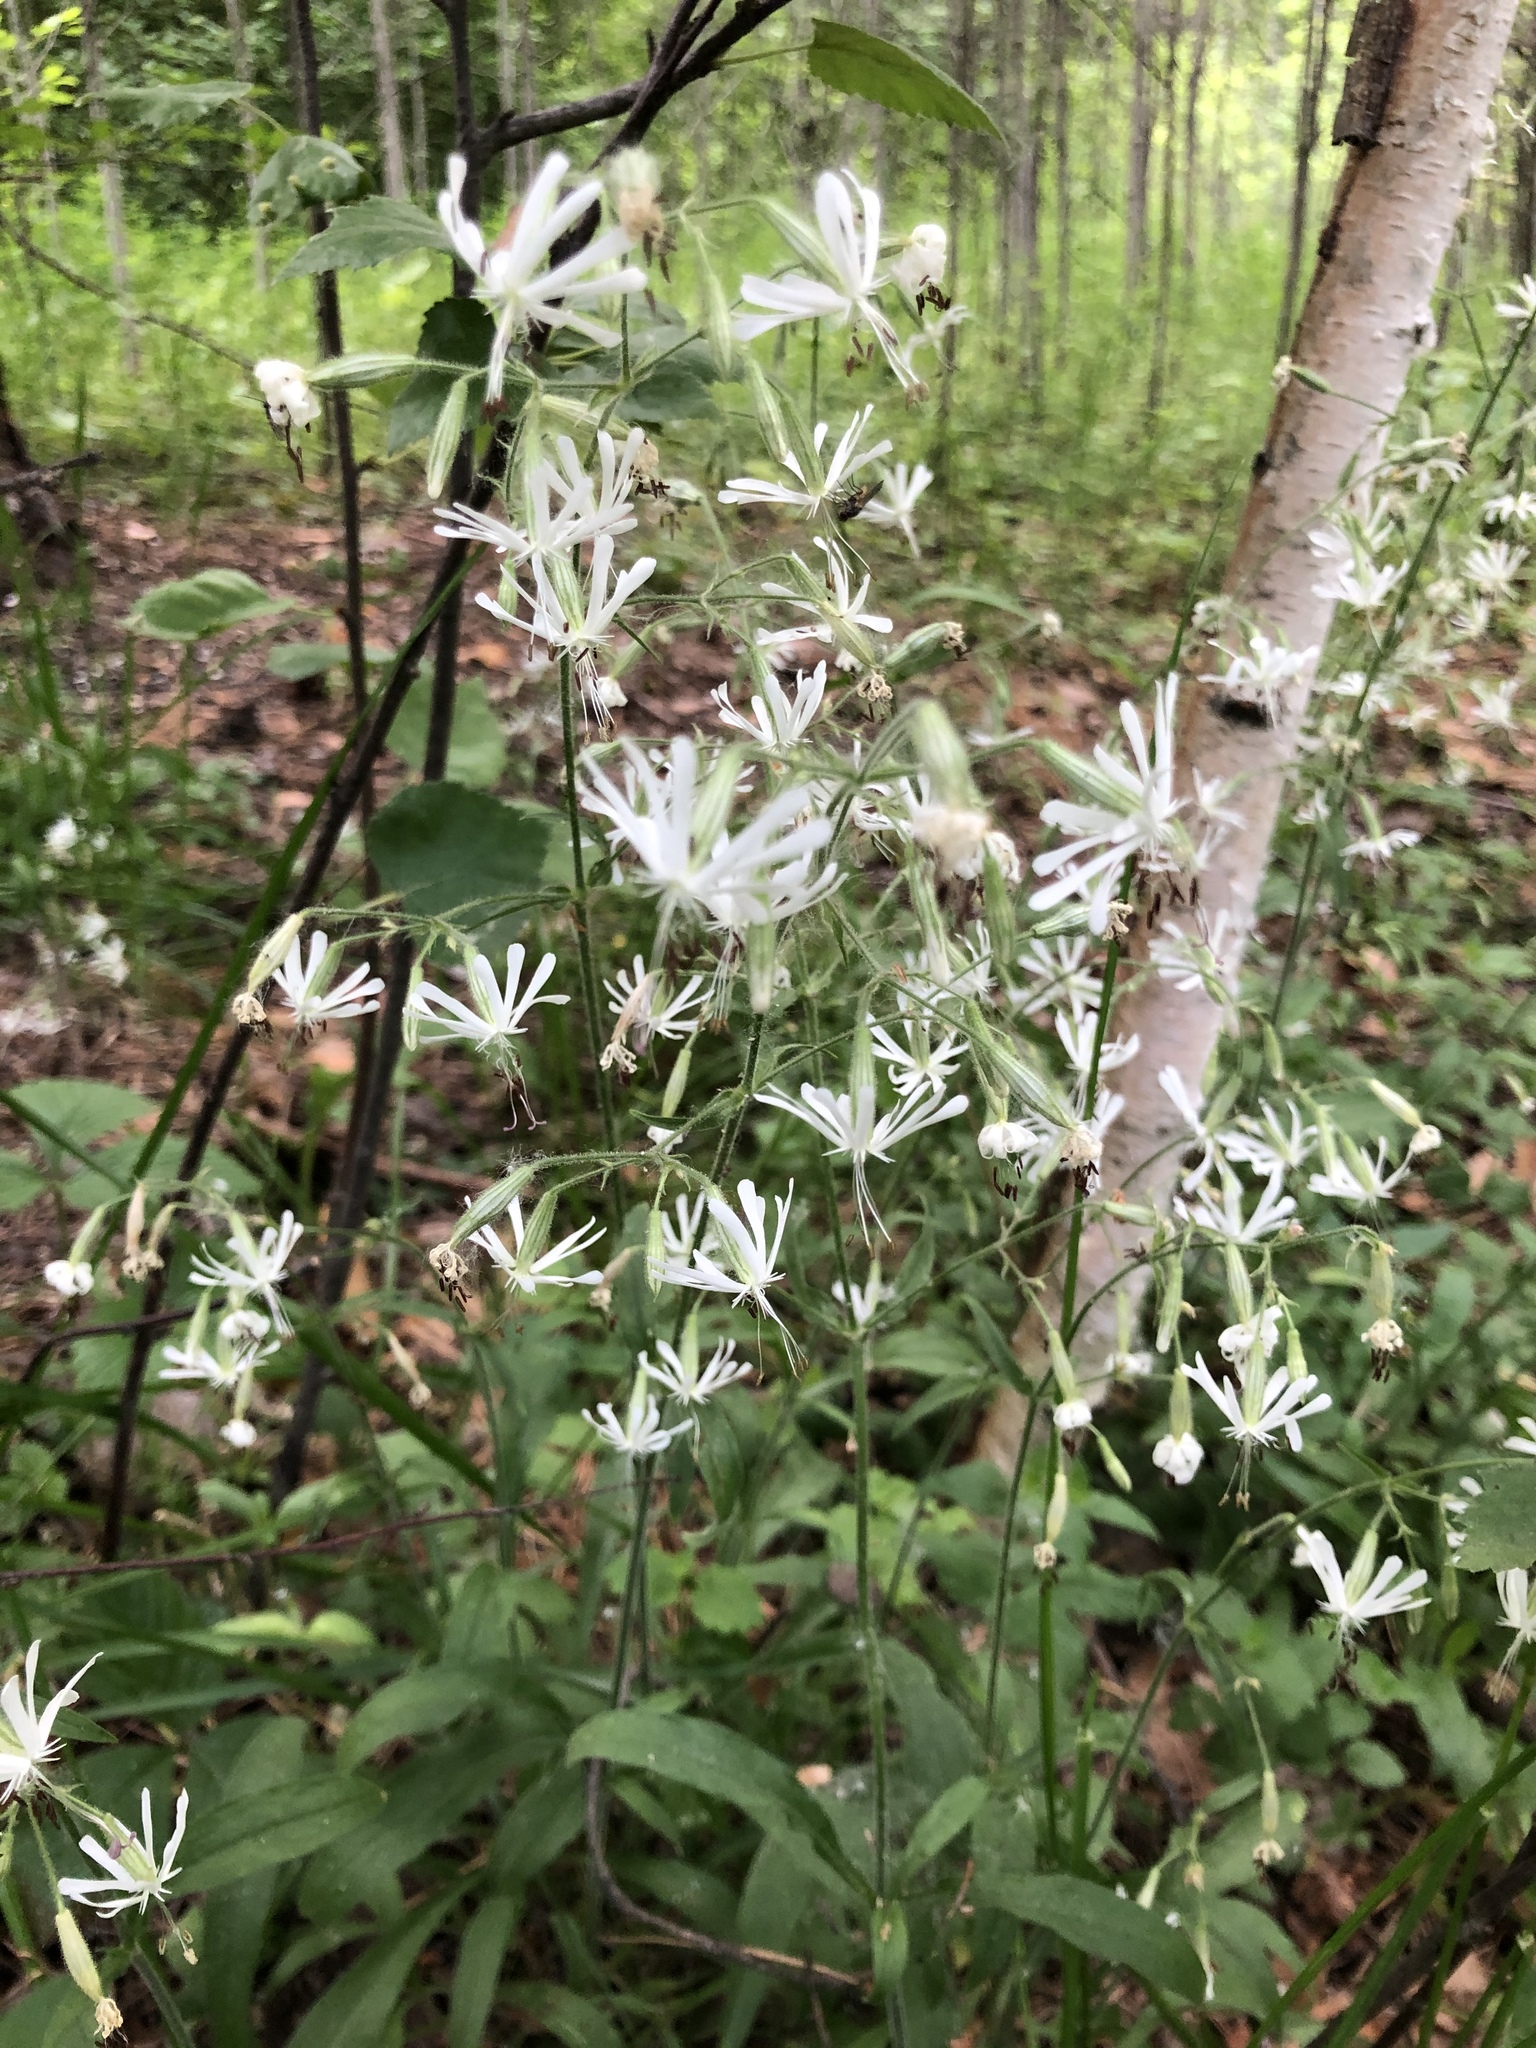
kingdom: Plantae
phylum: Tracheophyta
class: Magnoliopsida
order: Caryophyllales
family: Caryophyllaceae
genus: Silene
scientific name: Silene nutans
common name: Nottingham catchfly
